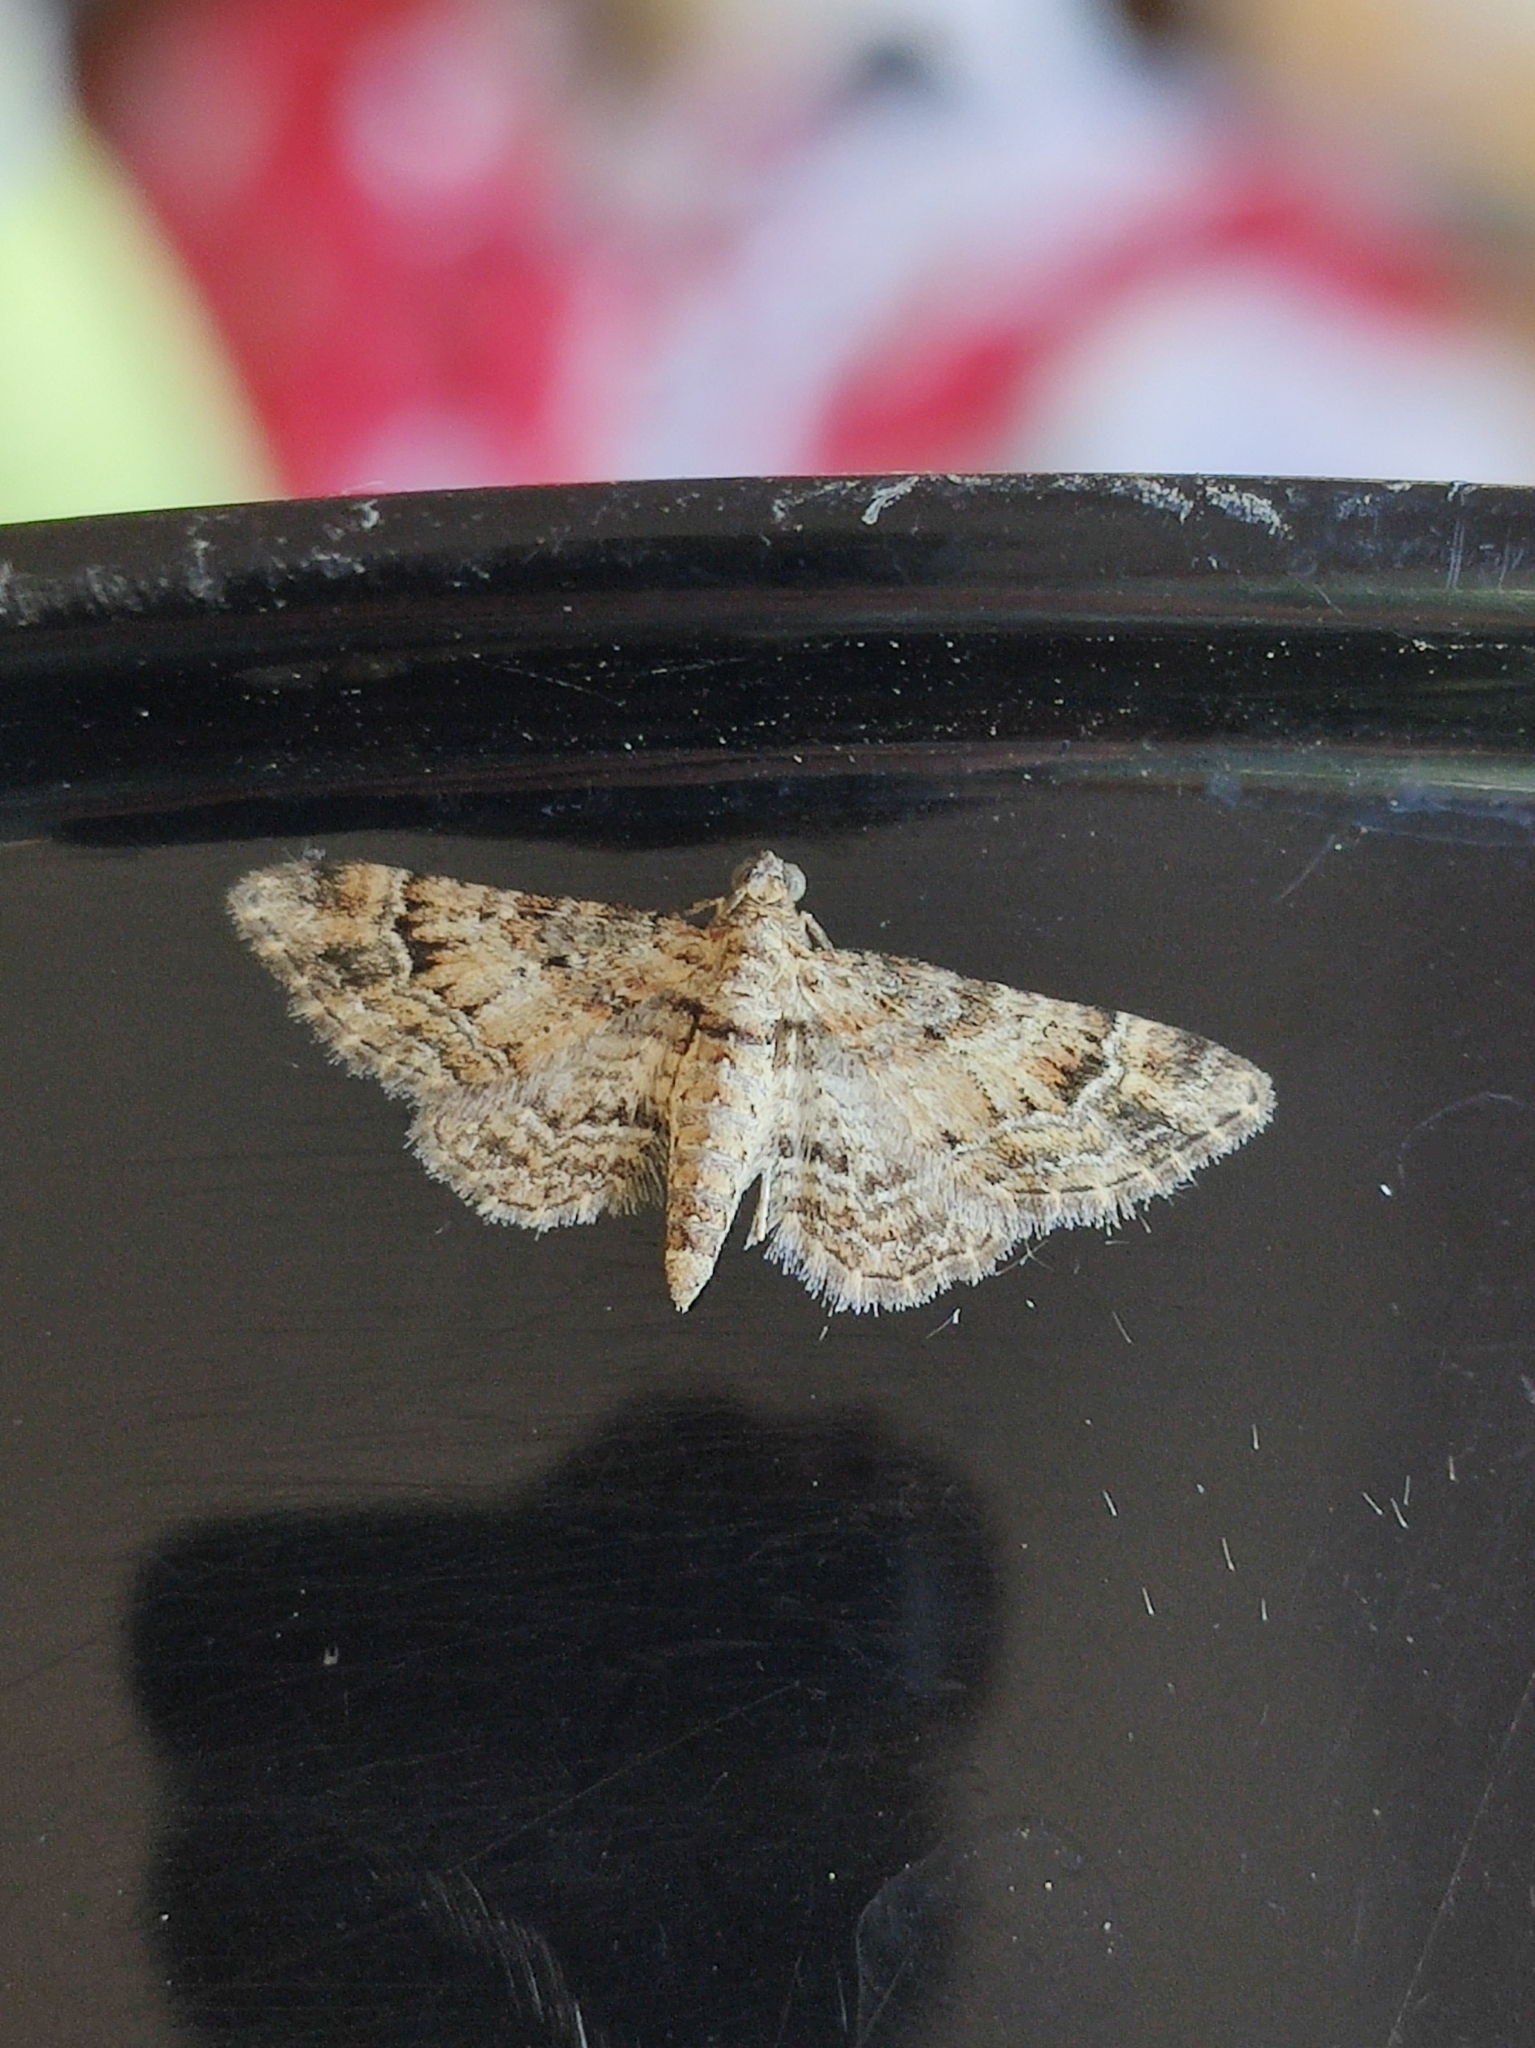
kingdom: Animalia
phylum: Arthropoda
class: Insecta
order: Lepidoptera
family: Geometridae
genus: Gymnoscelis
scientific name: Gymnoscelis rufifasciata
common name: Double-striped pug
